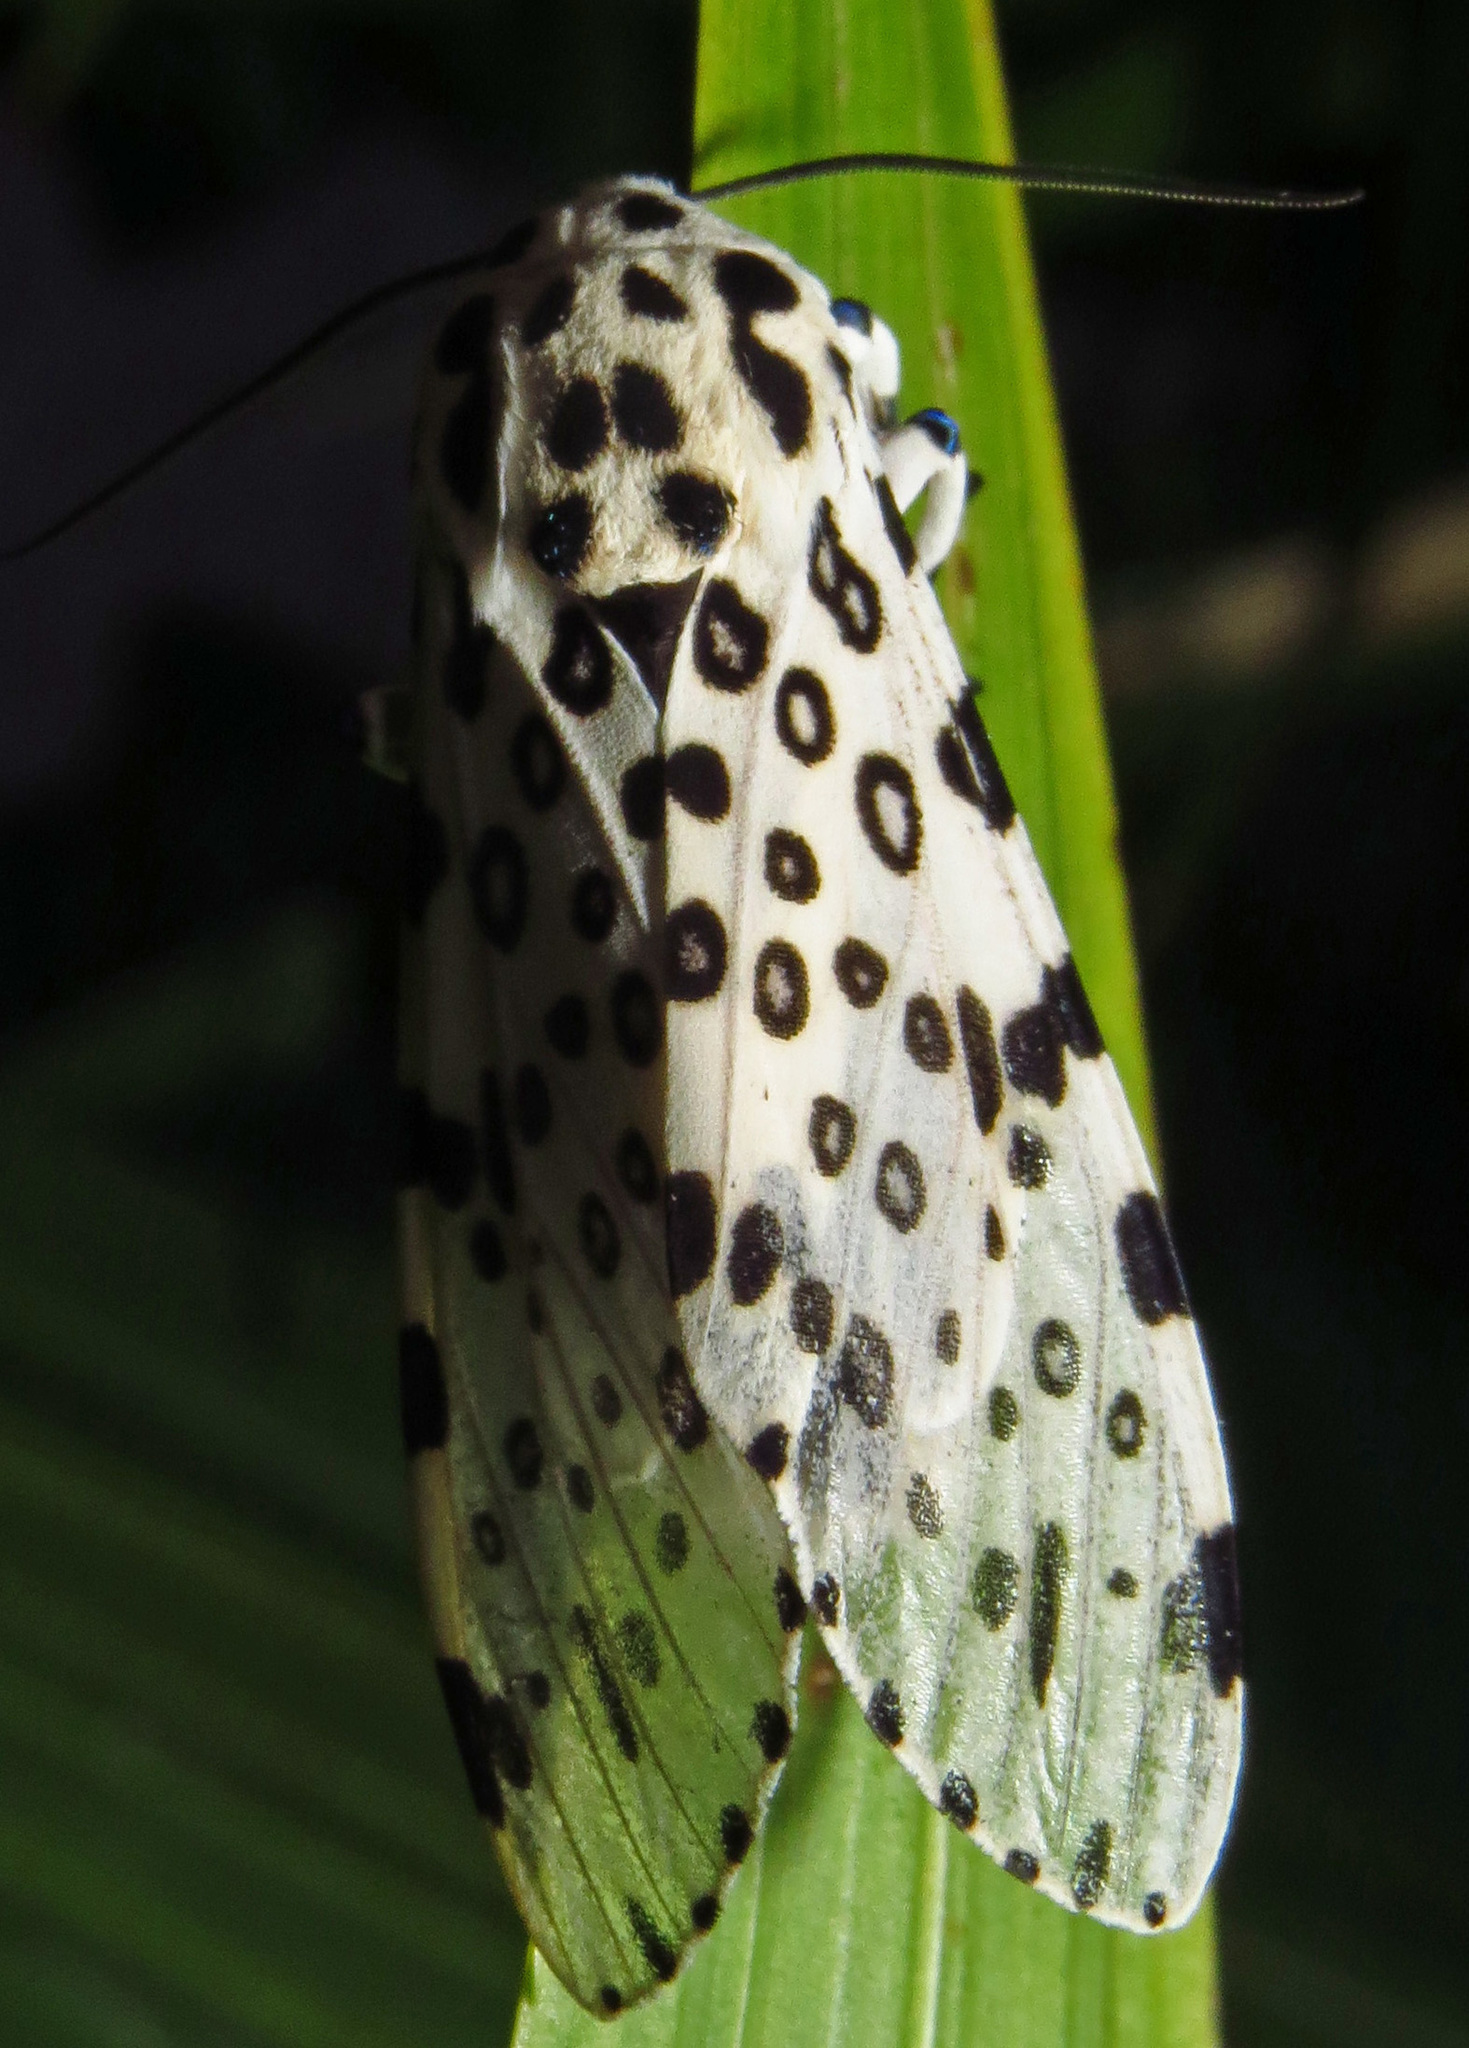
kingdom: Animalia
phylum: Arthropoda
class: Insecta
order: Lepidoptera
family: Erebidae
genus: Hypercompe
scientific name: Hypercompe scribonia
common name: Giant leopard moth
